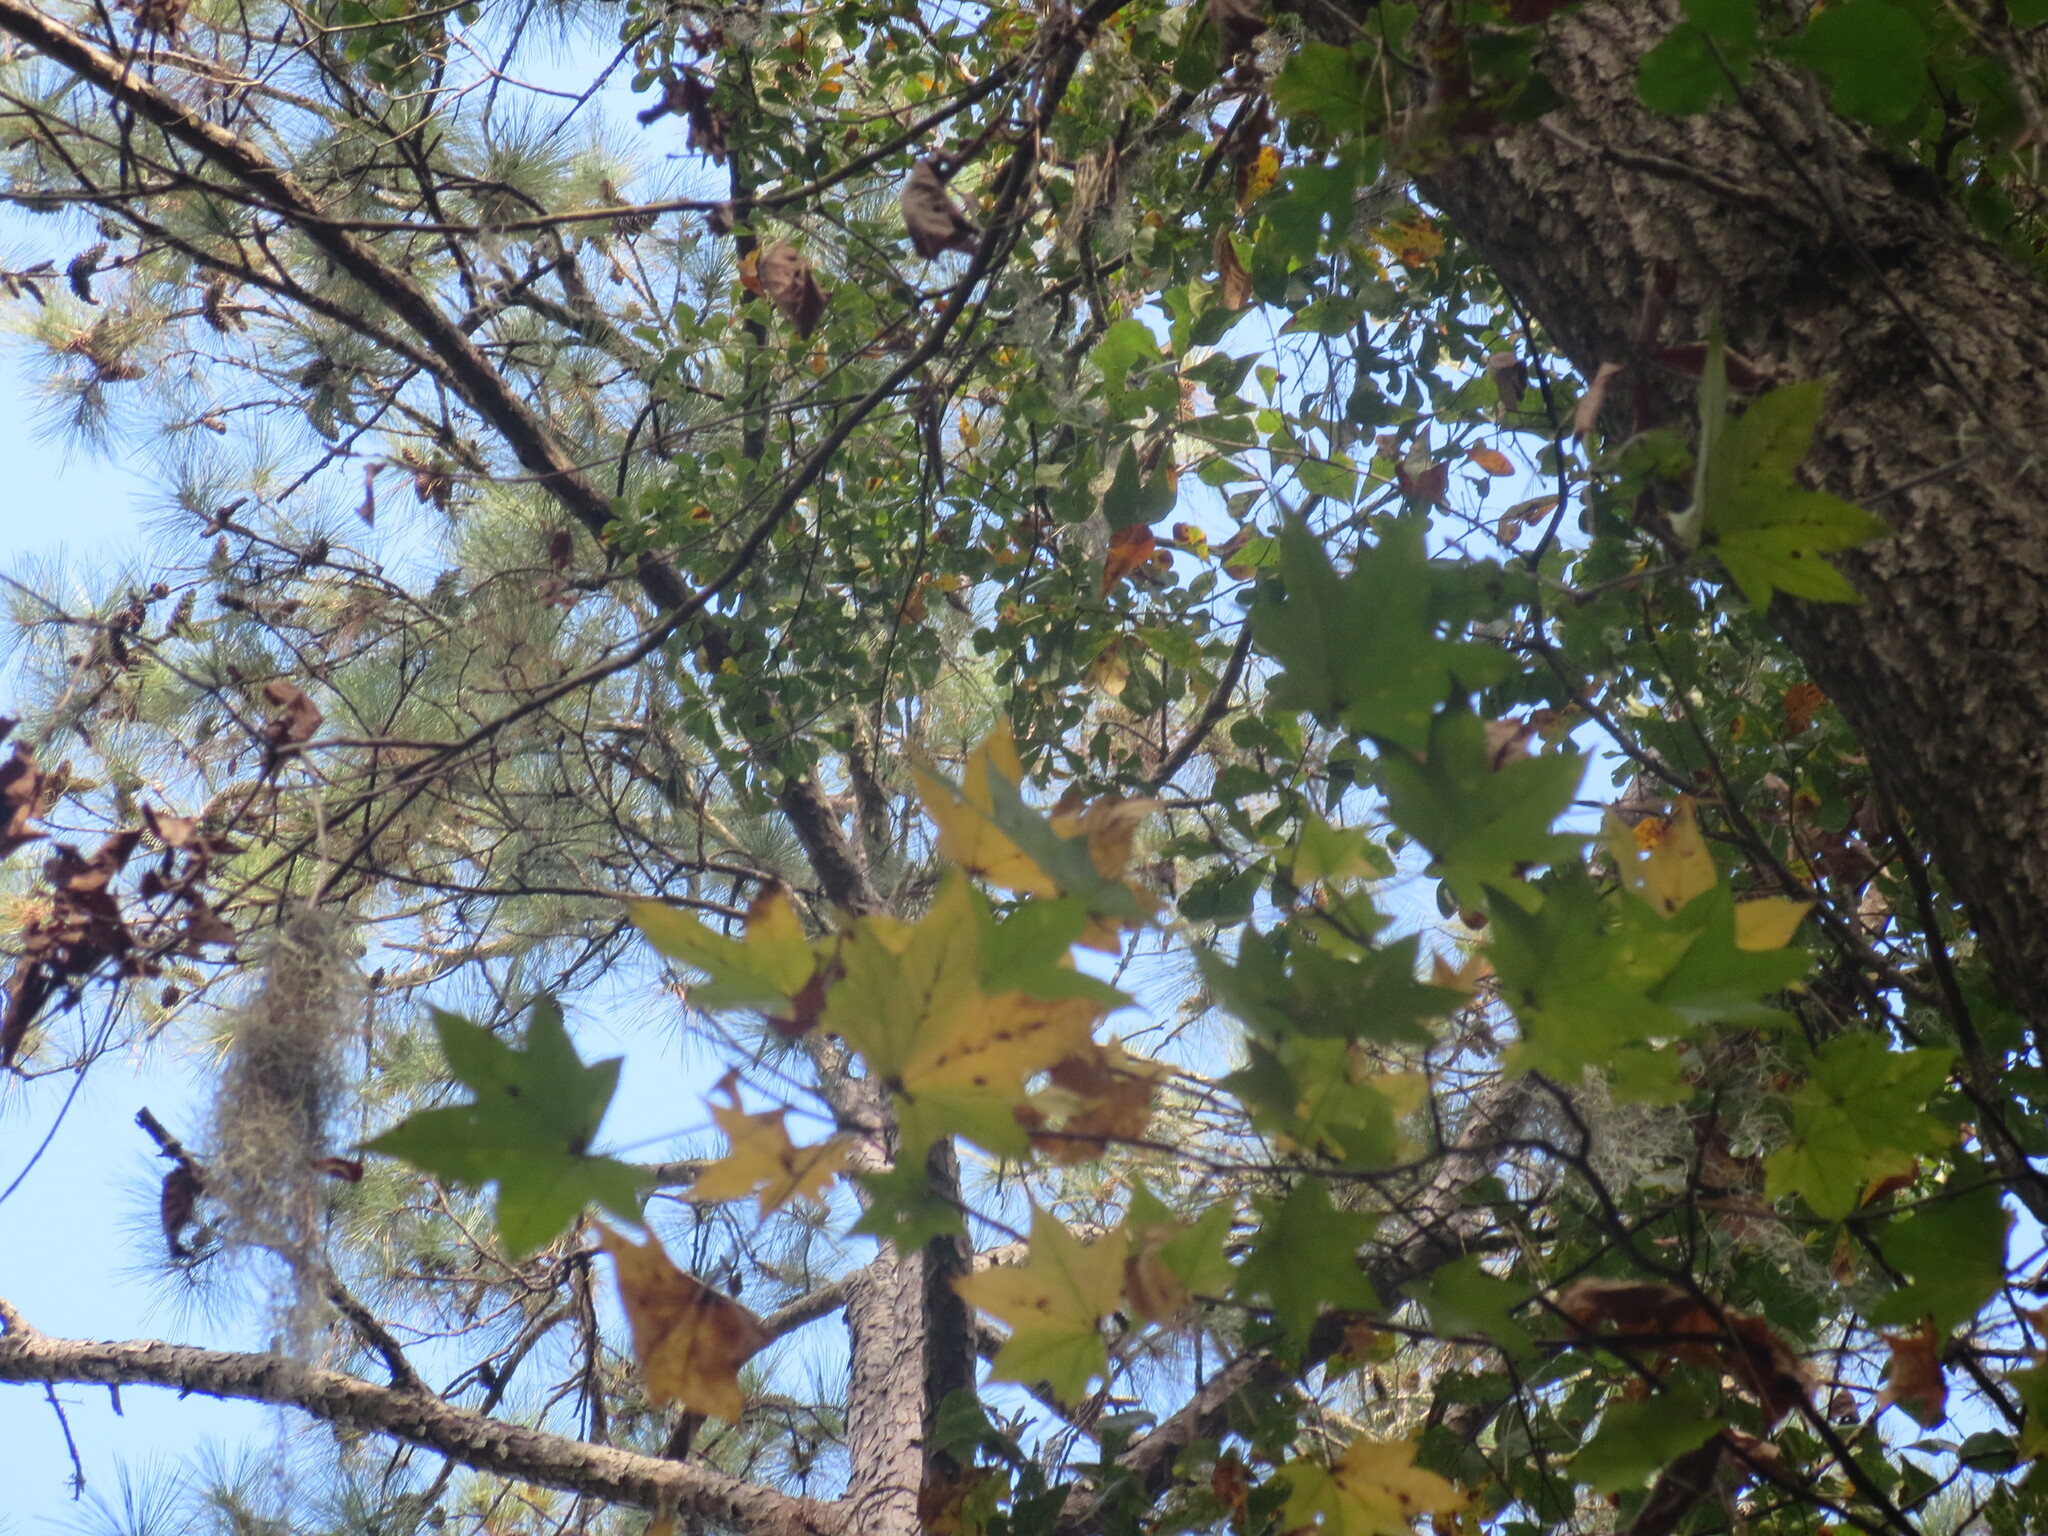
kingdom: Plantae
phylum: Tracheophyta
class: Magnoliopsida
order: Saxifragales
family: Altingiaceae
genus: Liquidambar
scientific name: Liquidambar styraciflua
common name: Sweet gum
